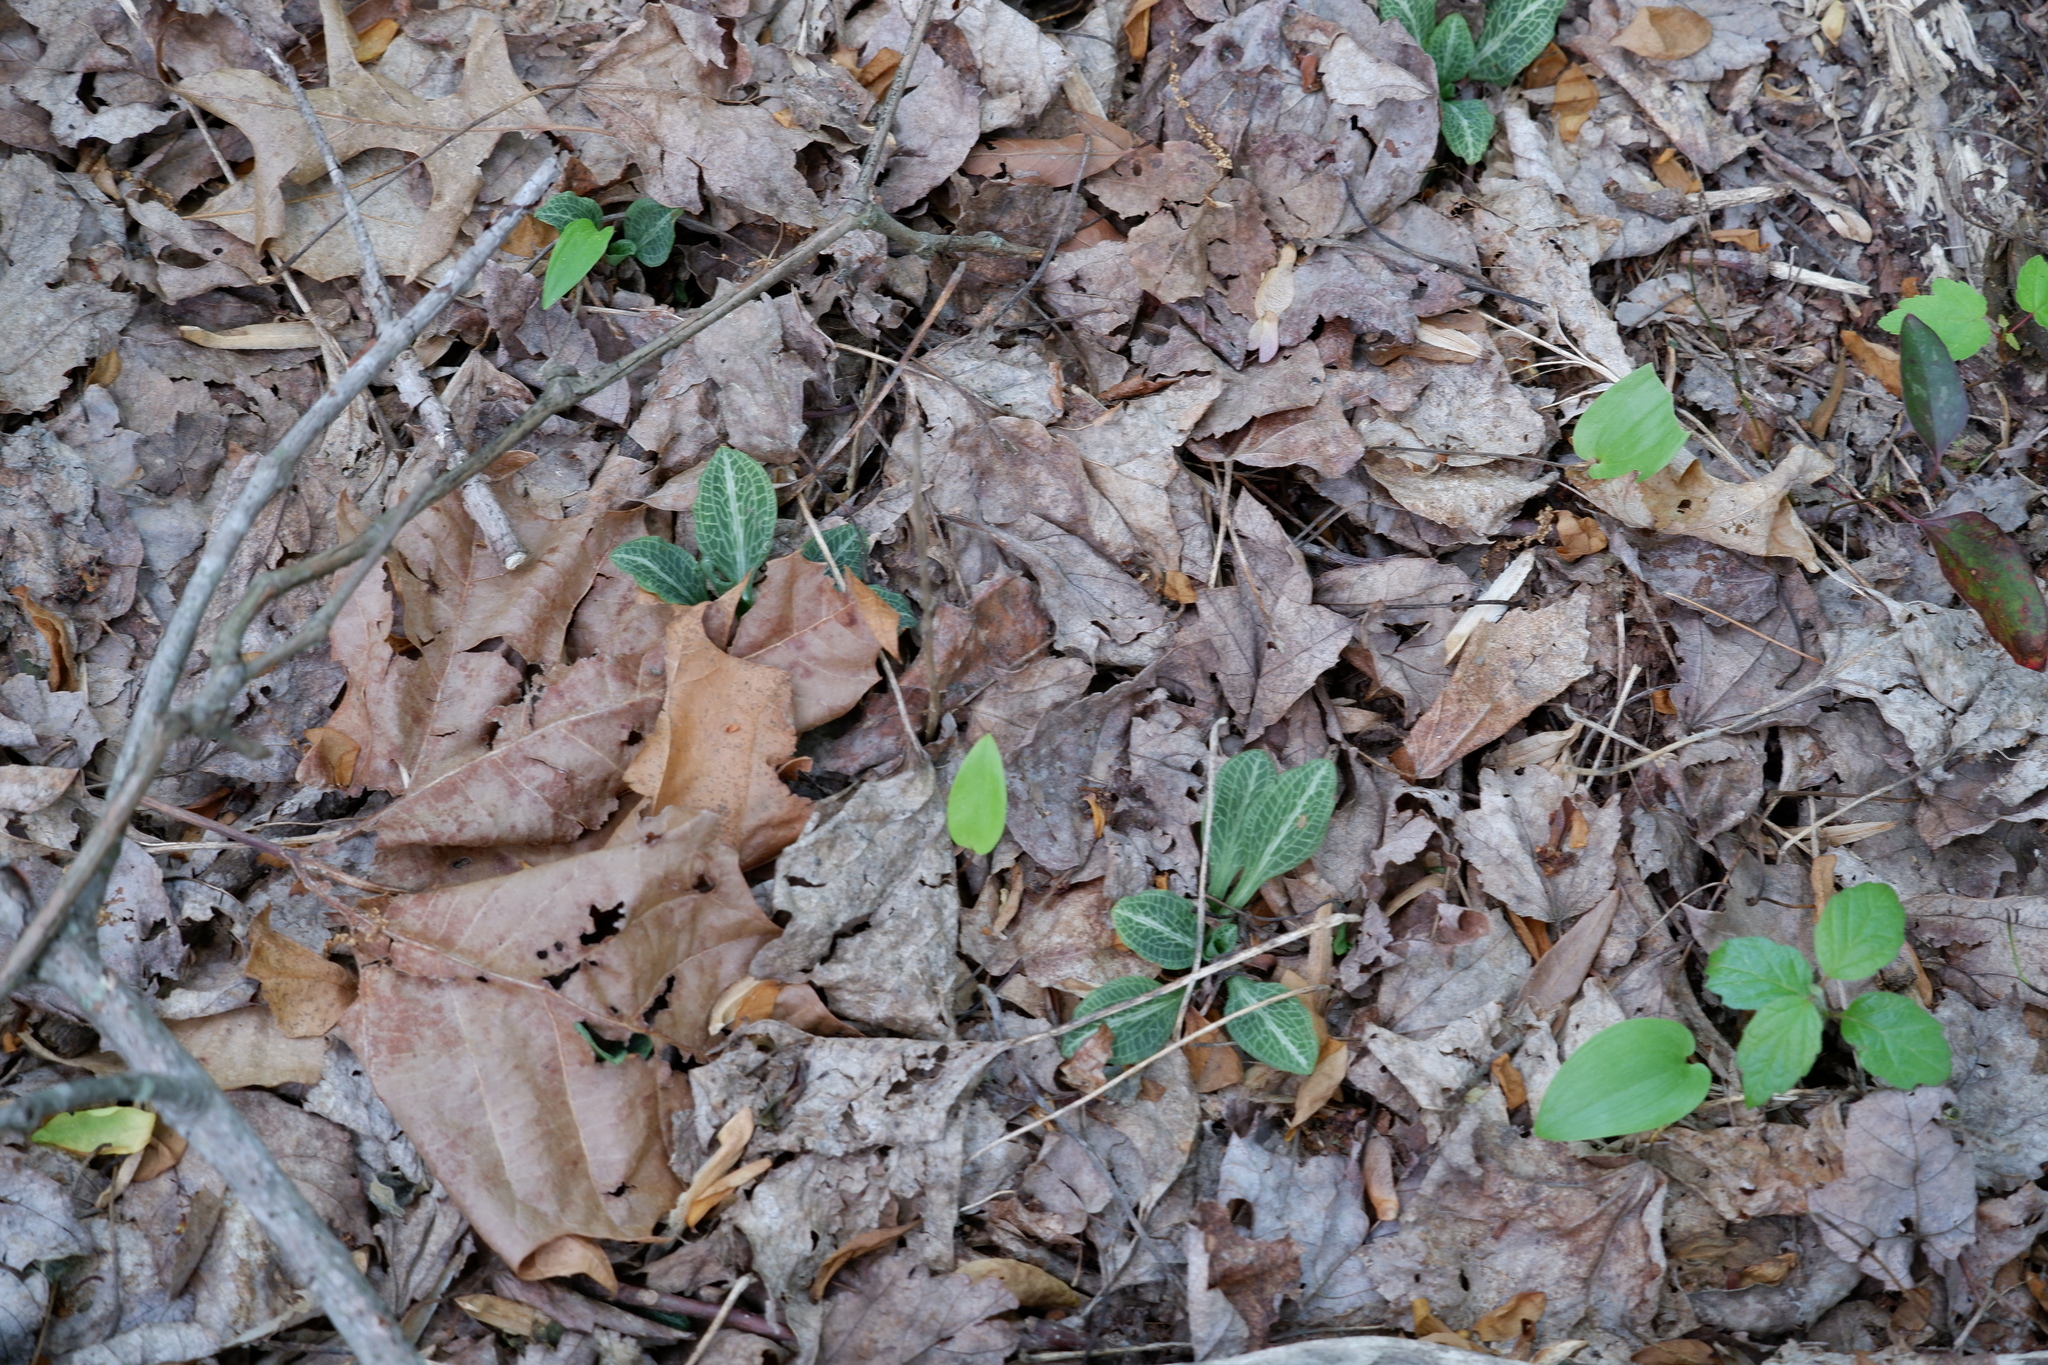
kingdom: Plantae
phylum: Tracheophyta
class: Liliopsida
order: Asparagales
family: Orchidaceae
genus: Goodyera
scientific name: Goodyera pubescens
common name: Downy rattlesnake-plantain
